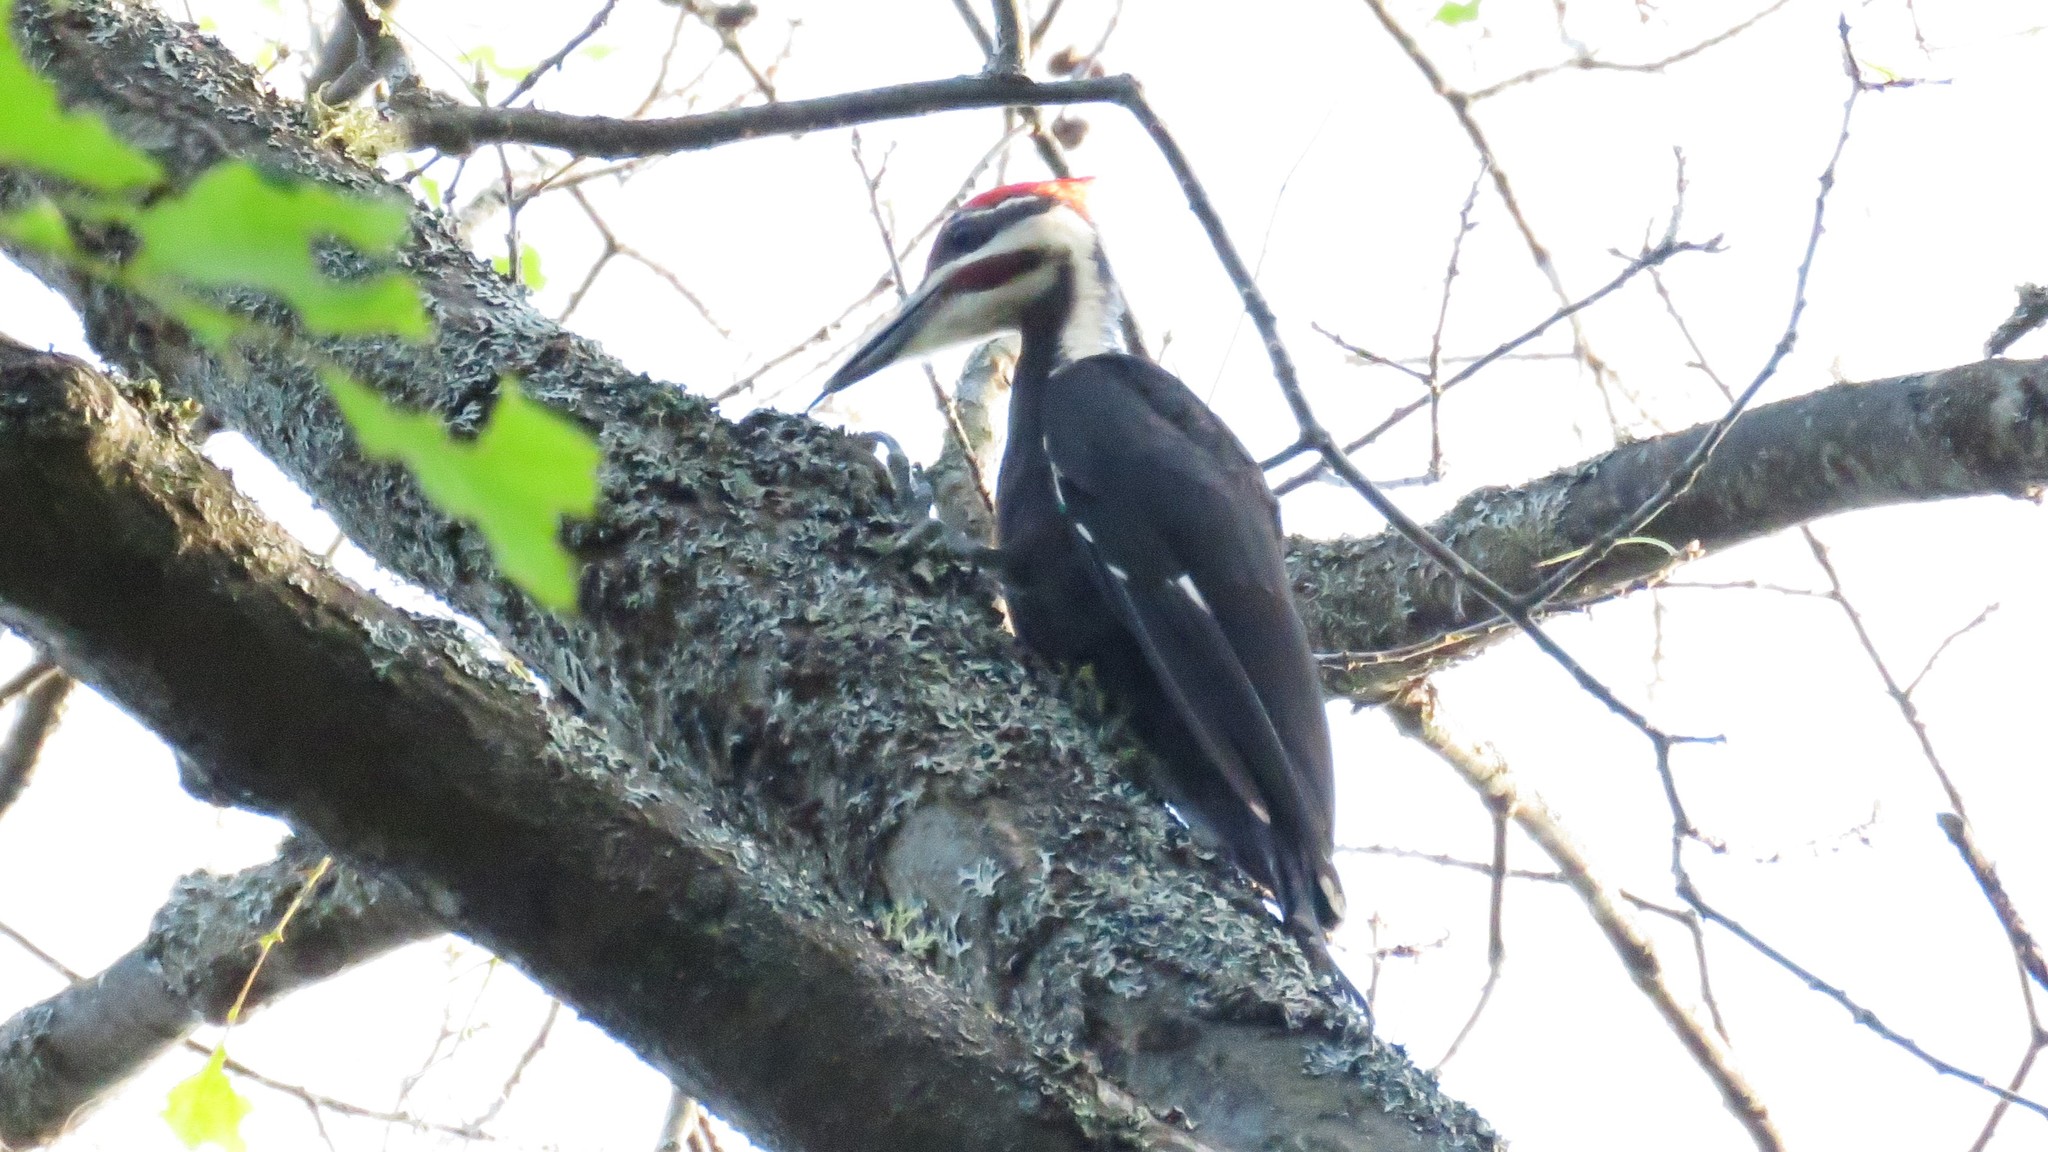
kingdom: Animalia
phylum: Chordata
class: Aves
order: Piciformes
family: Picidae
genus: Dryocopus
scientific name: Dryocopus pileatus
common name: Pileated woodpecker
